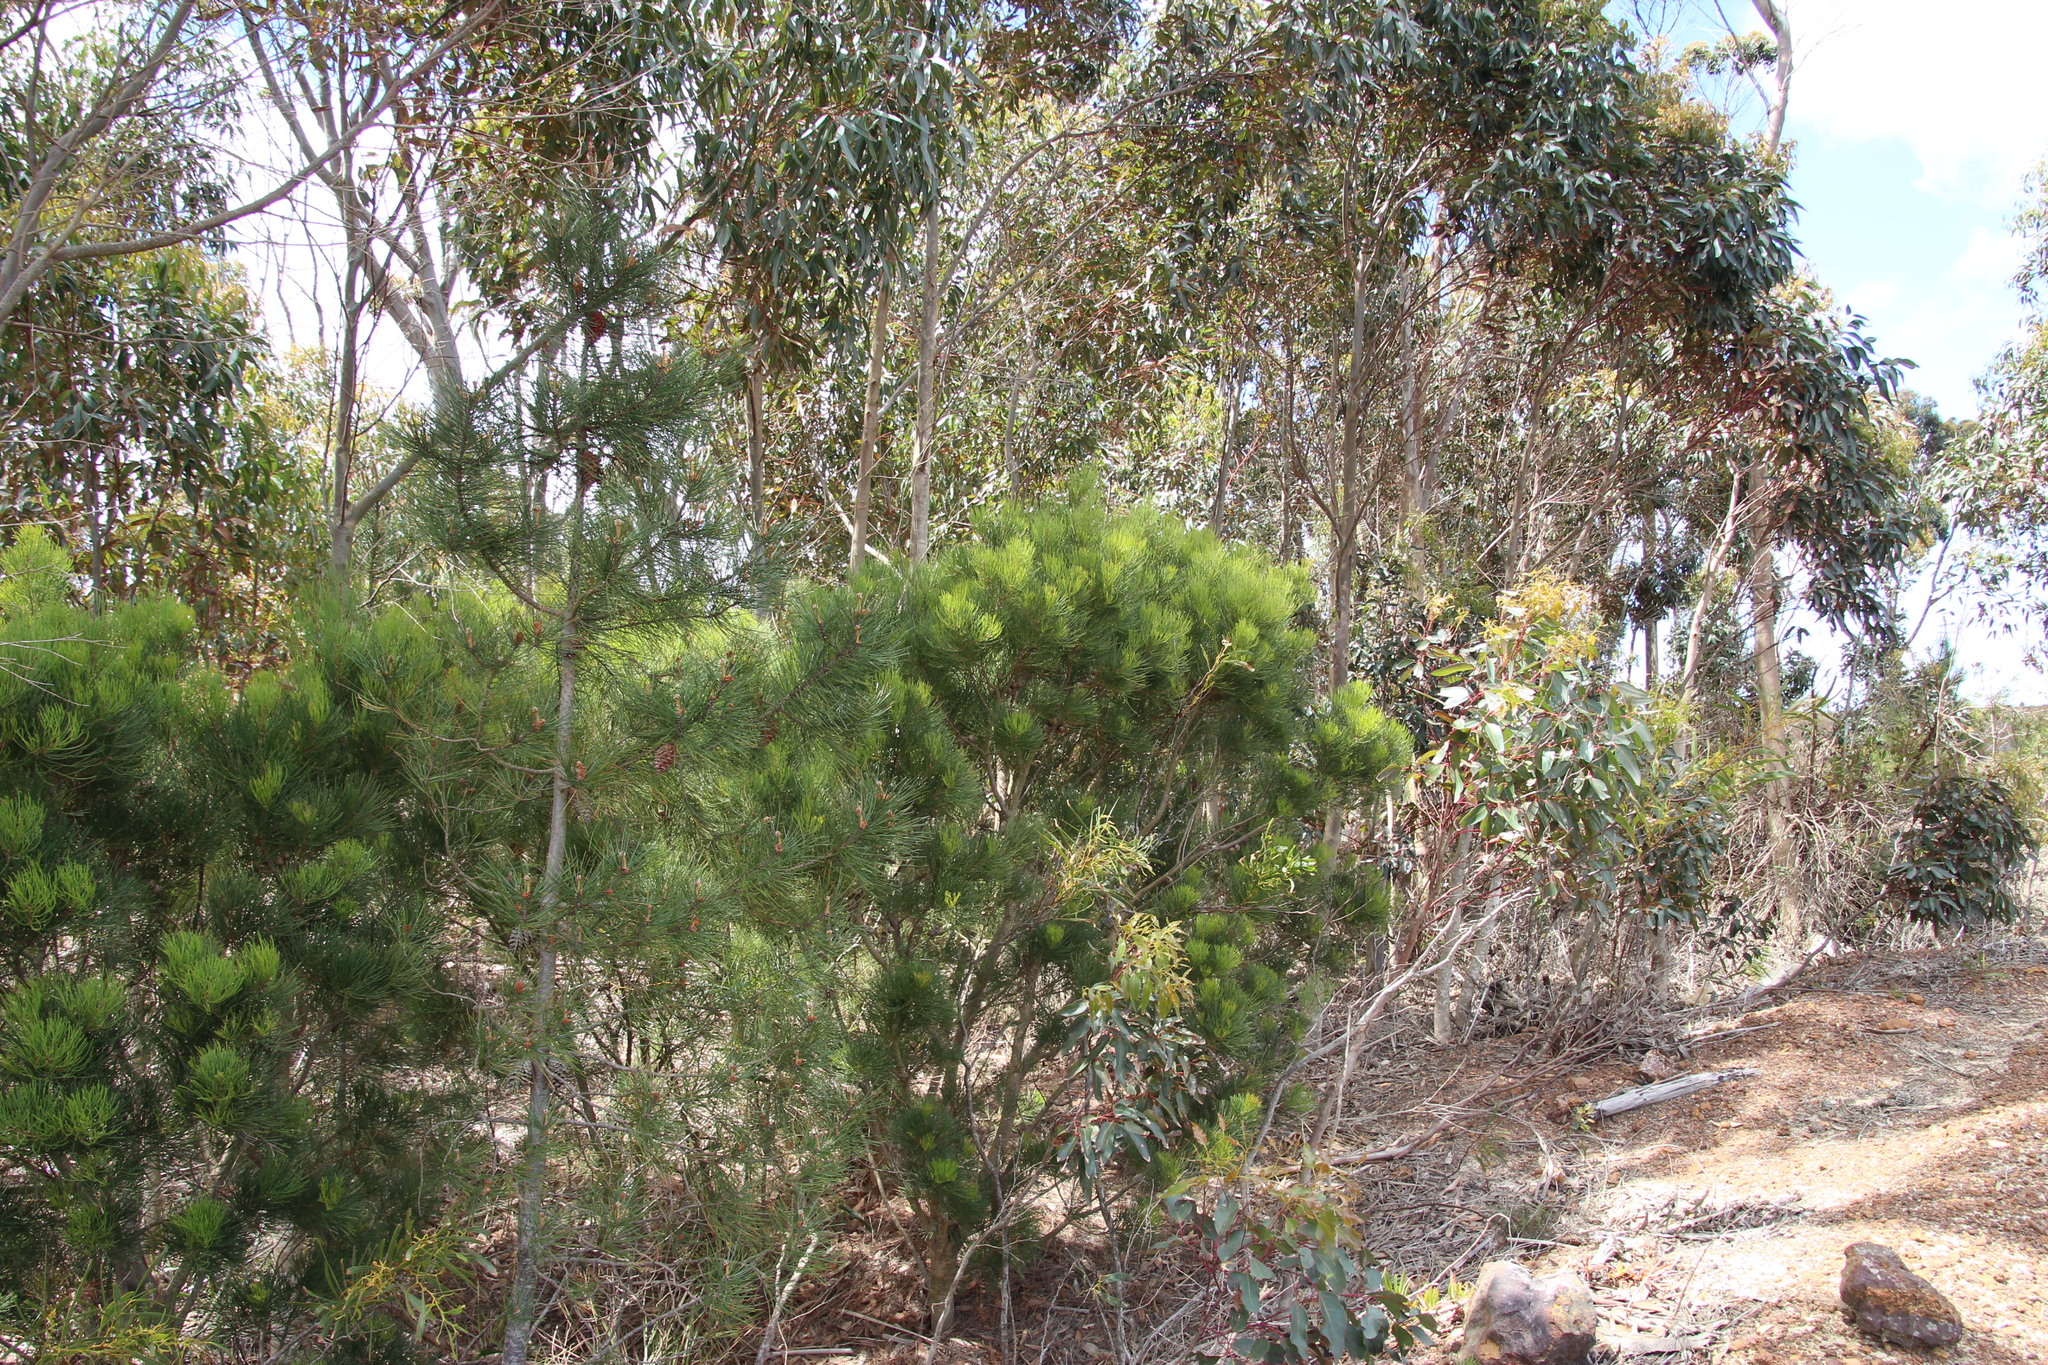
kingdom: Plantae
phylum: Tracheophyta
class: Magnoliopsida
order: Proteales
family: Proteaceae
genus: Hakea
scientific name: Hakea drupacea
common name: Sweet hakea
